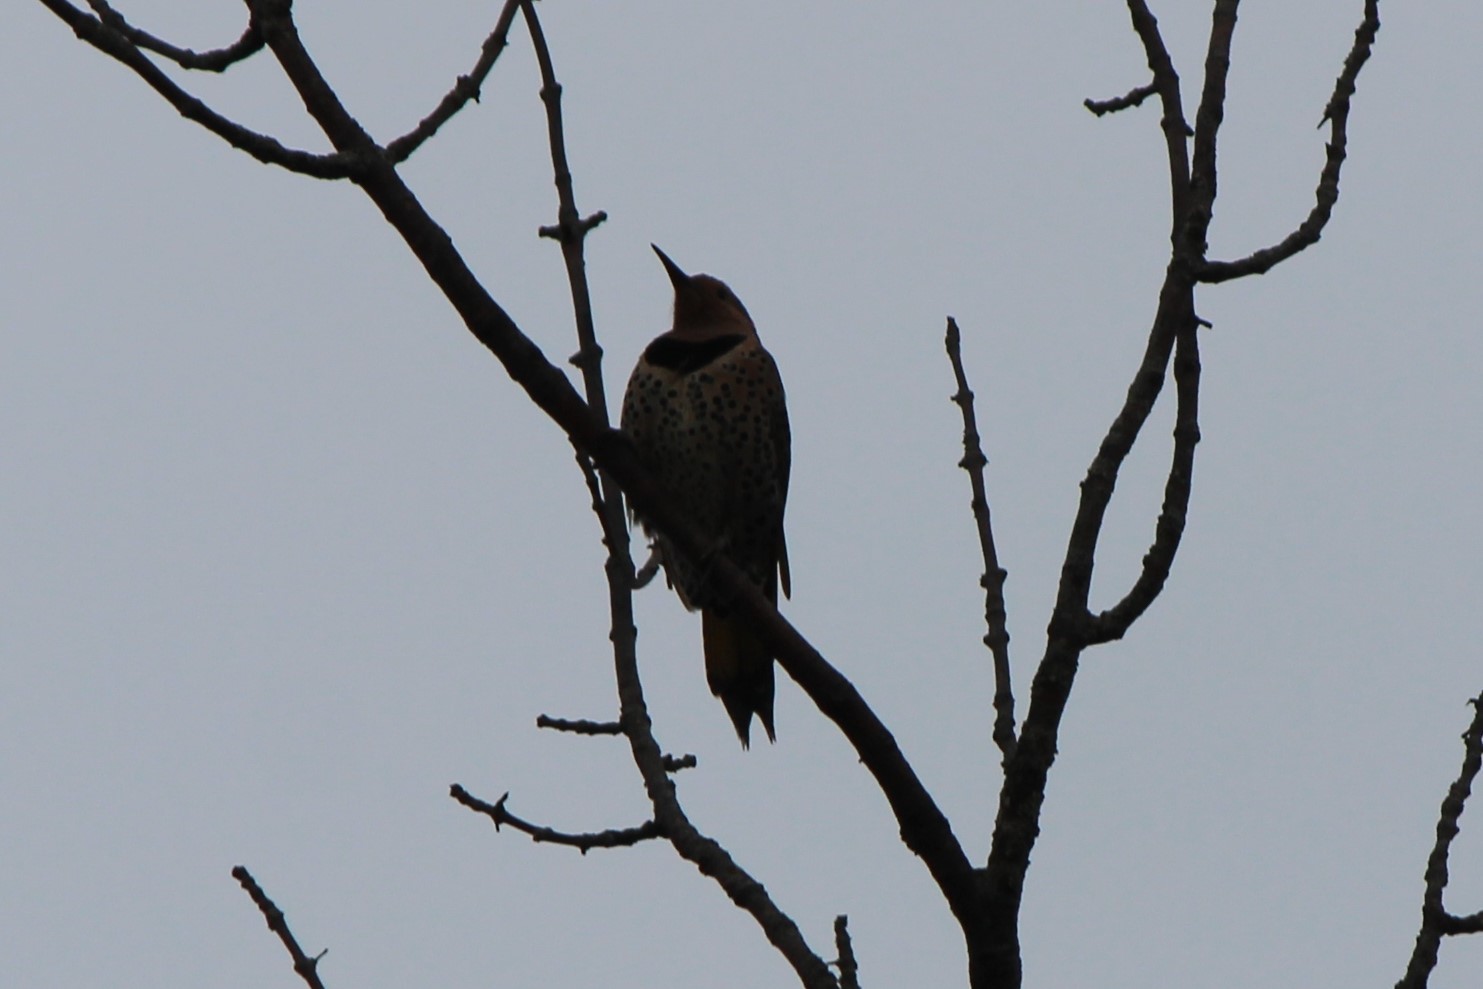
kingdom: Animalia
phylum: Chordata
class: Aves
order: Piciformes
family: Picidae
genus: Colaptes
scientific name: Colaptes auratus
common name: Northern flicker
